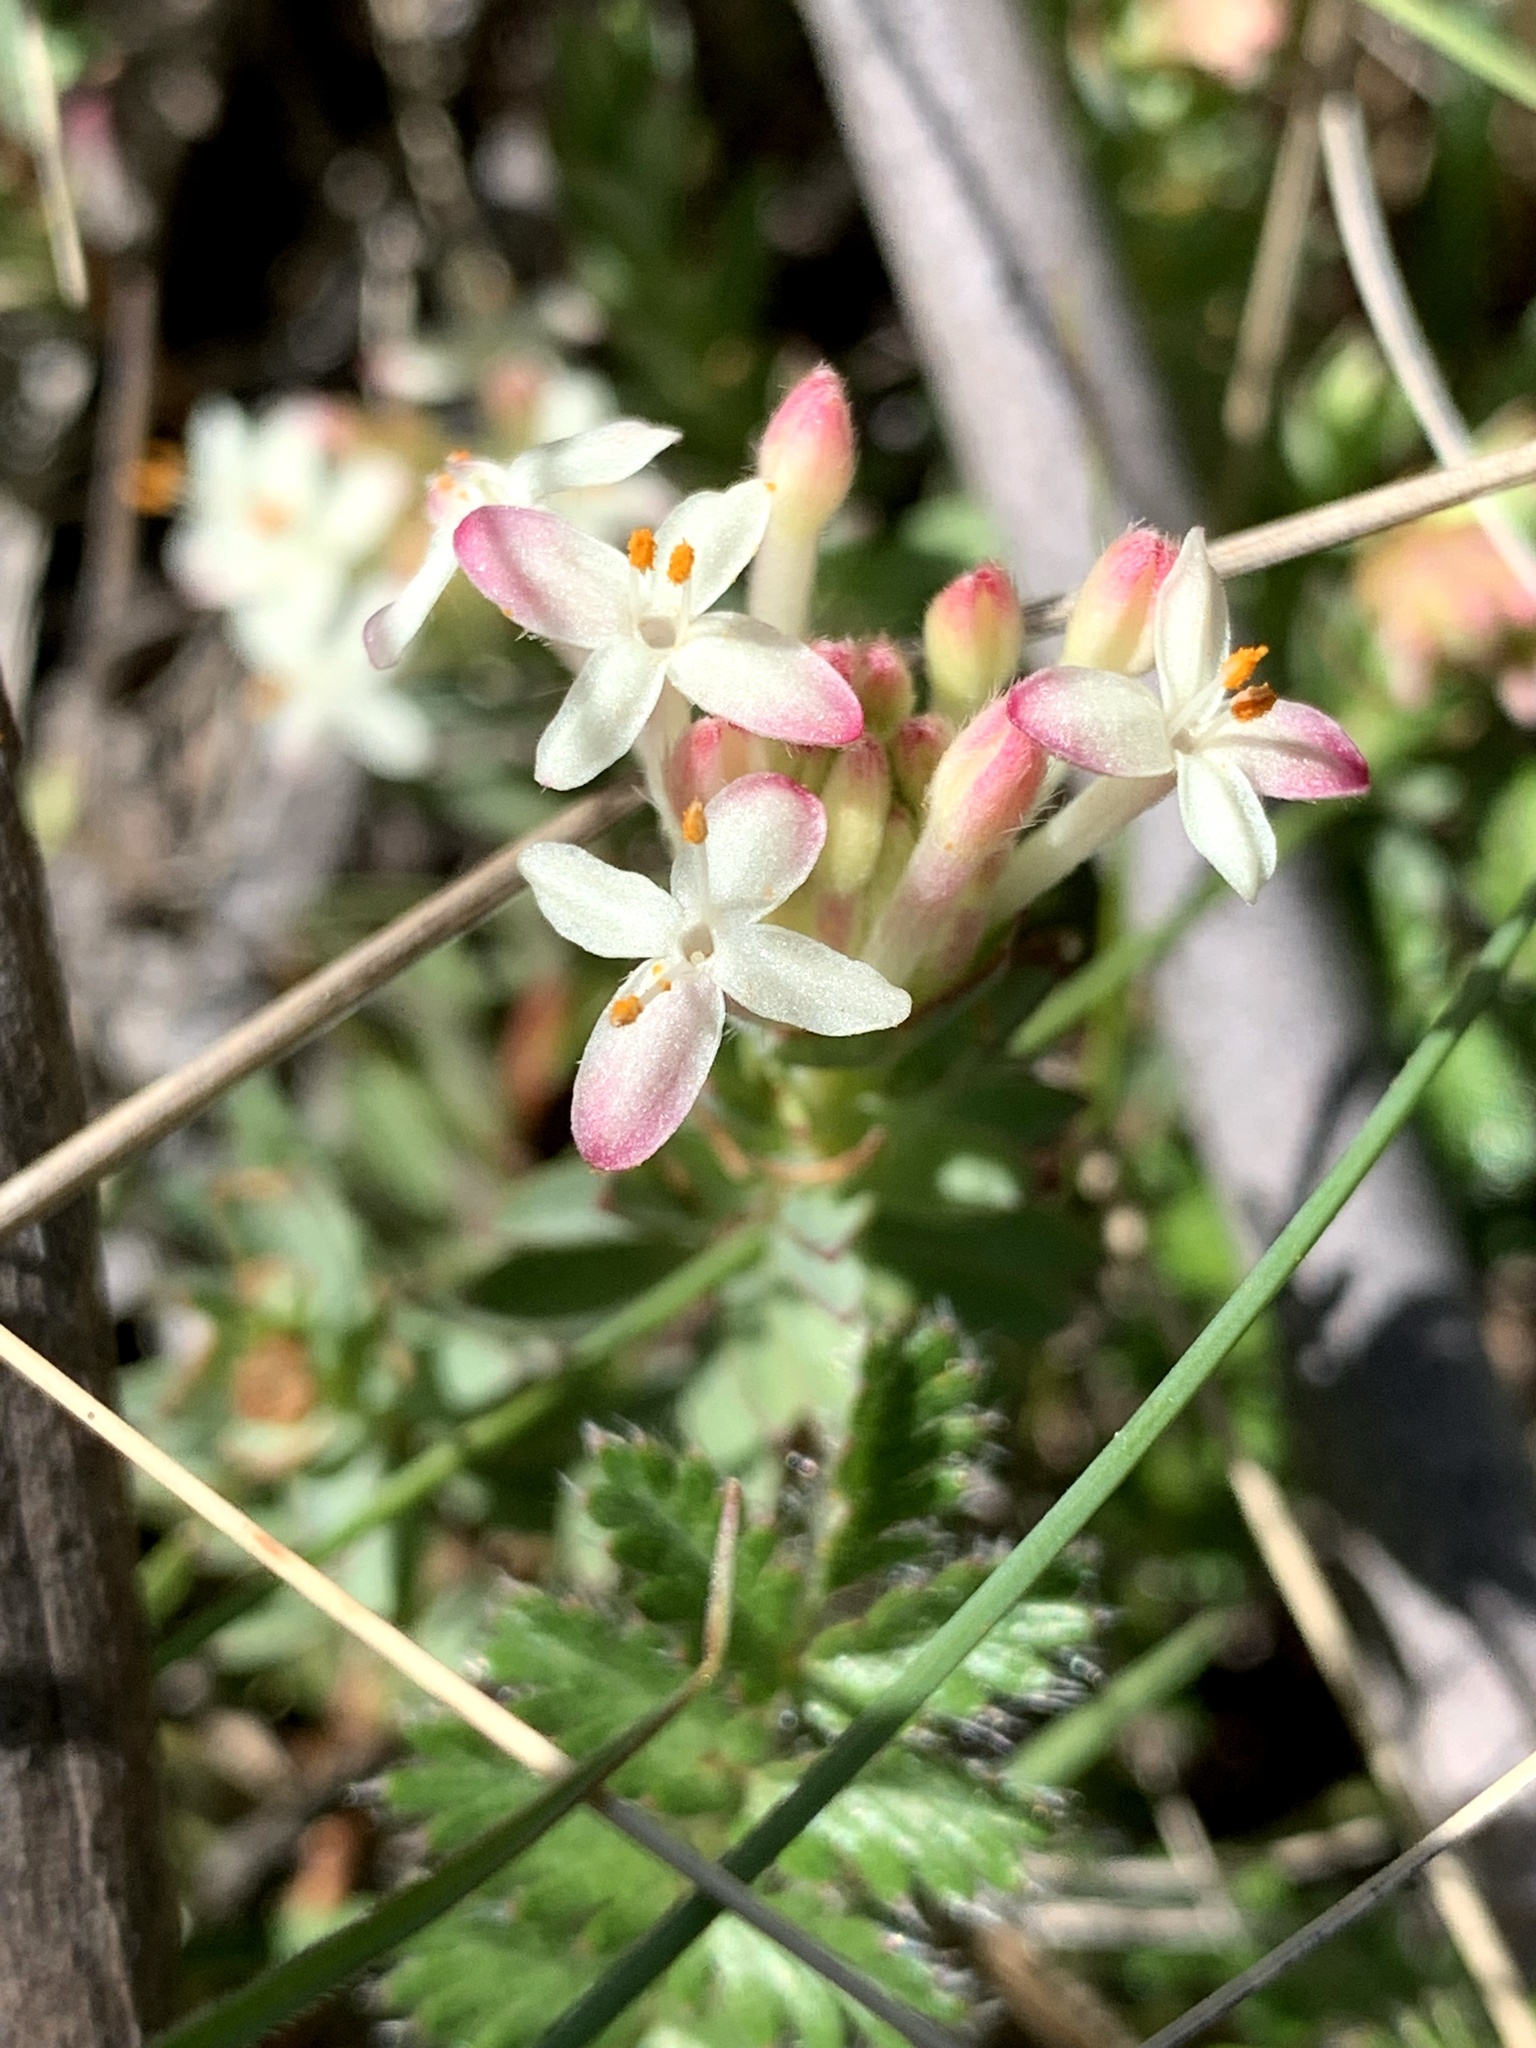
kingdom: Plantae
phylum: Tracheophyta
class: Magnoliopsida
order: Malvales
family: Thymelaeaceae
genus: Pimelea
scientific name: Pimelea linifolia
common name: Queen-of-the-bush
